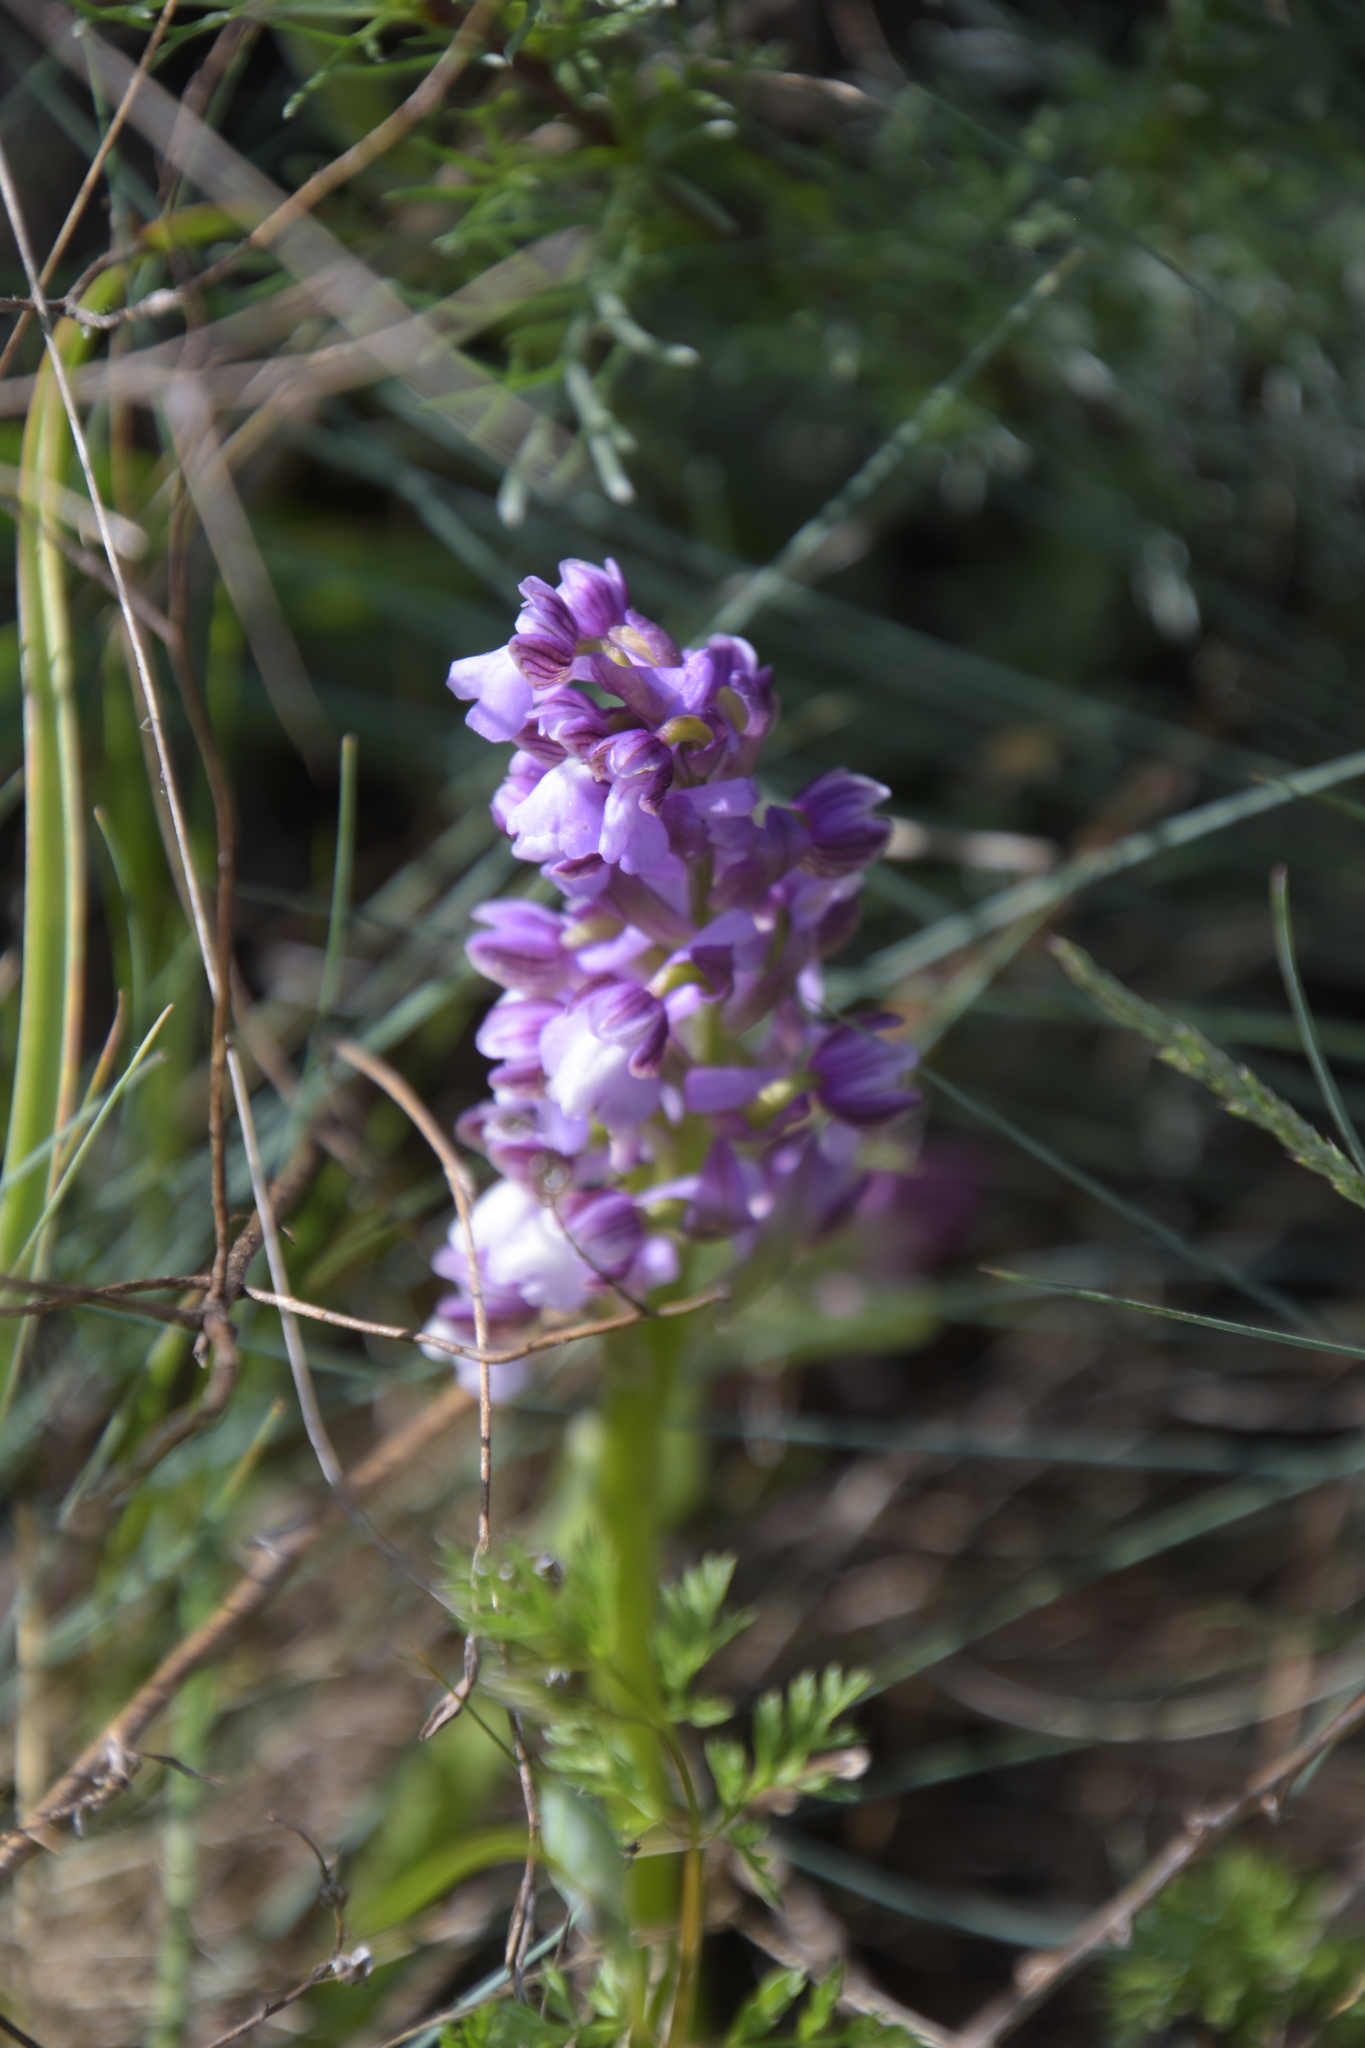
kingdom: Plantae
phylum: Tracheophyta
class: Liliopsida
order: Asparagales
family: Orchidaceae
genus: Anacamptis
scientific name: Anacamptis morio
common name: Green-winged orchid
